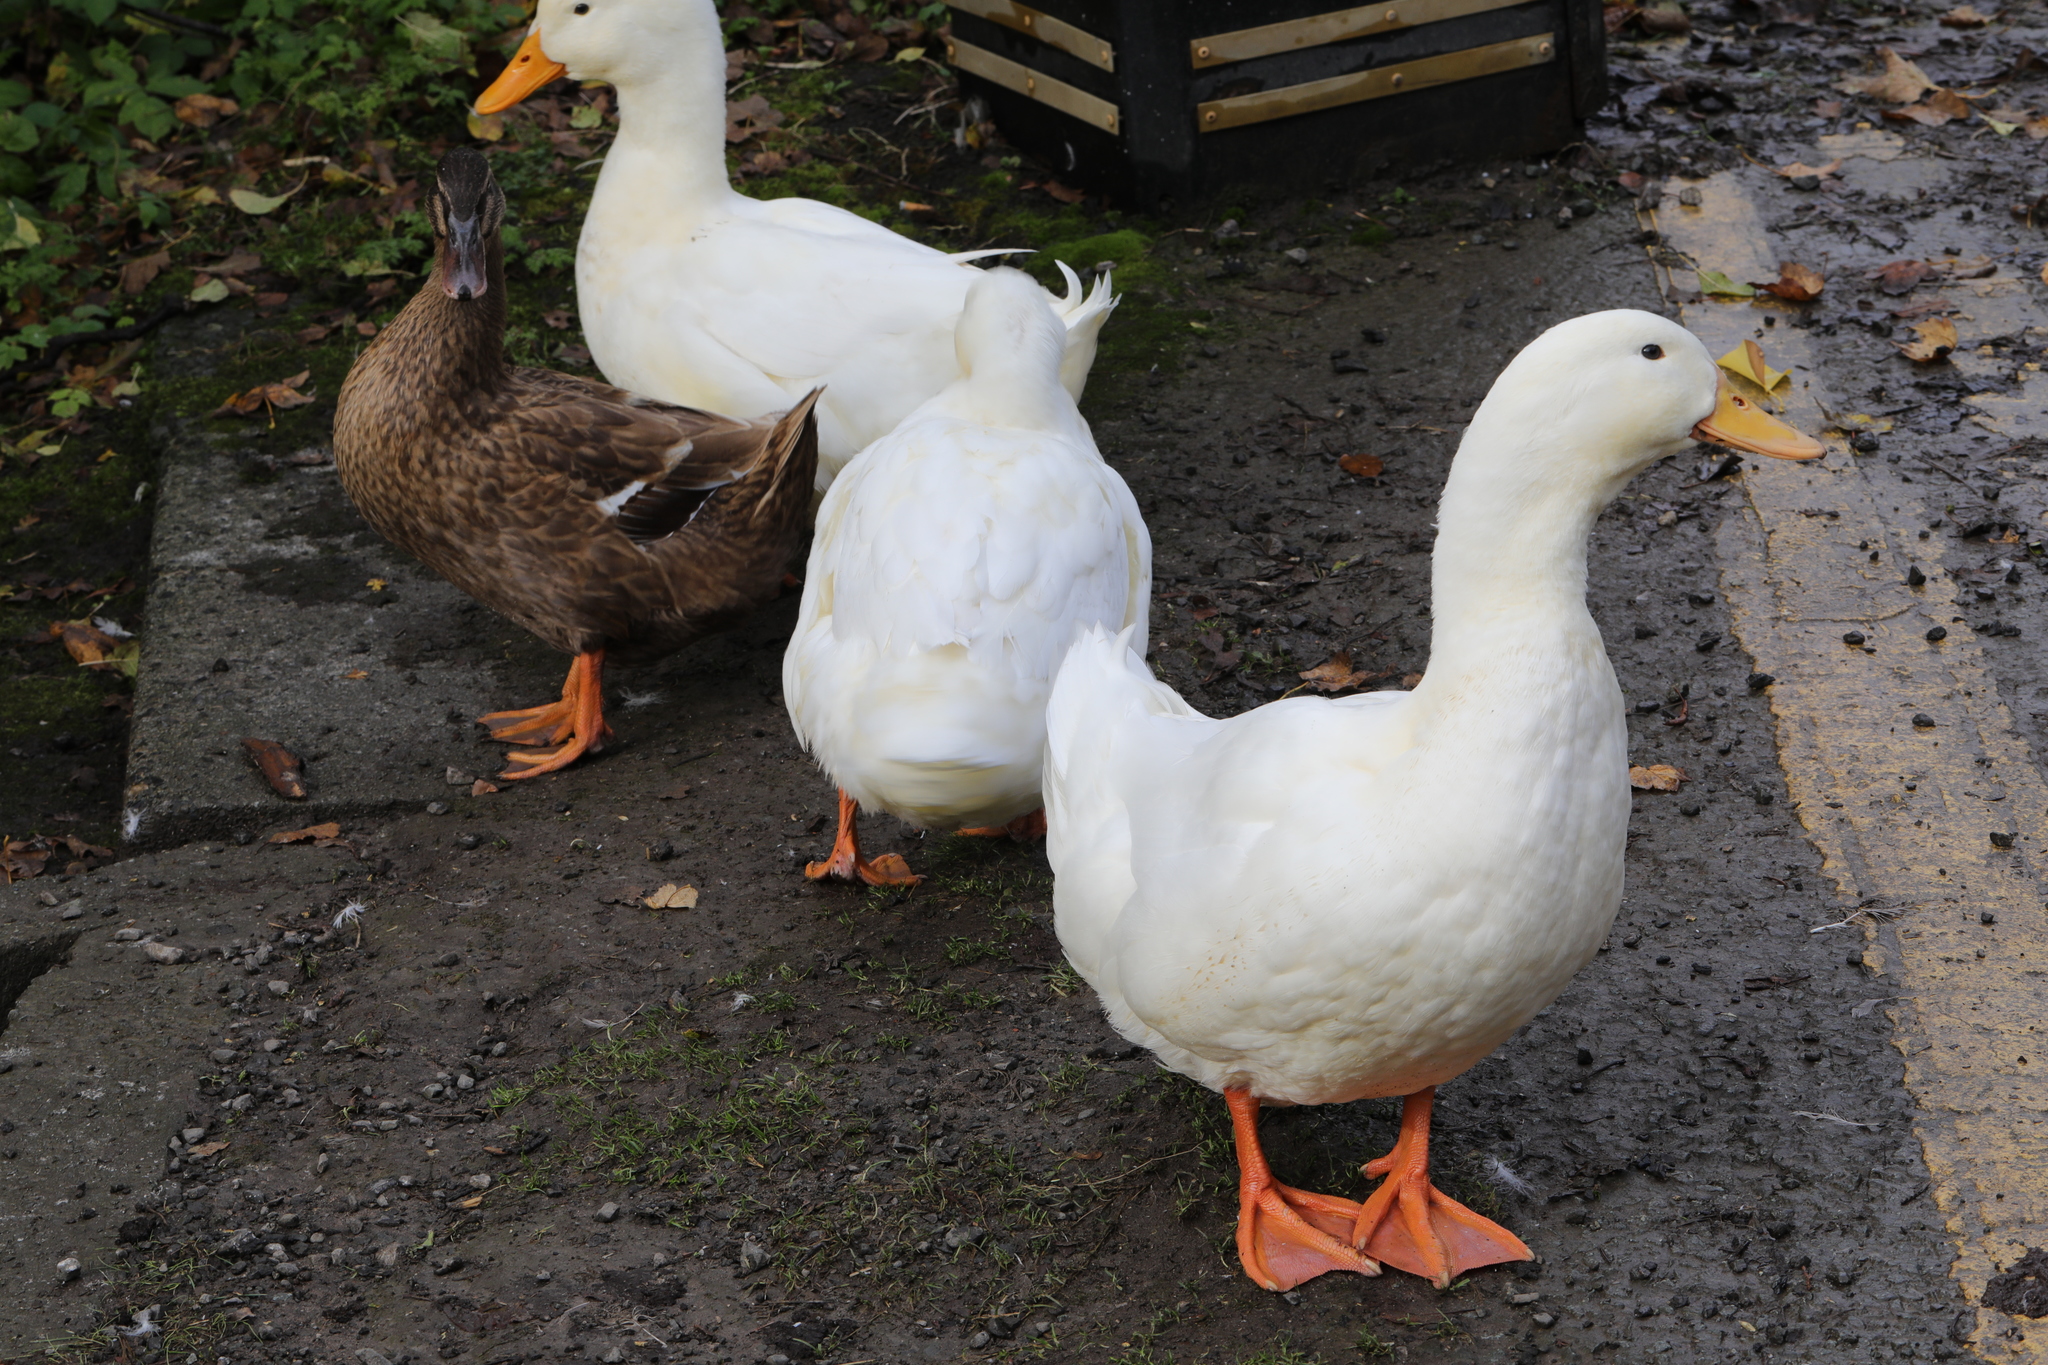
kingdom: Animalia
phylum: Chordata
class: Aves
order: Anseriformes
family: Anatidae
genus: Anas
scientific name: Anas platyrhynchos
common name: Mallard
